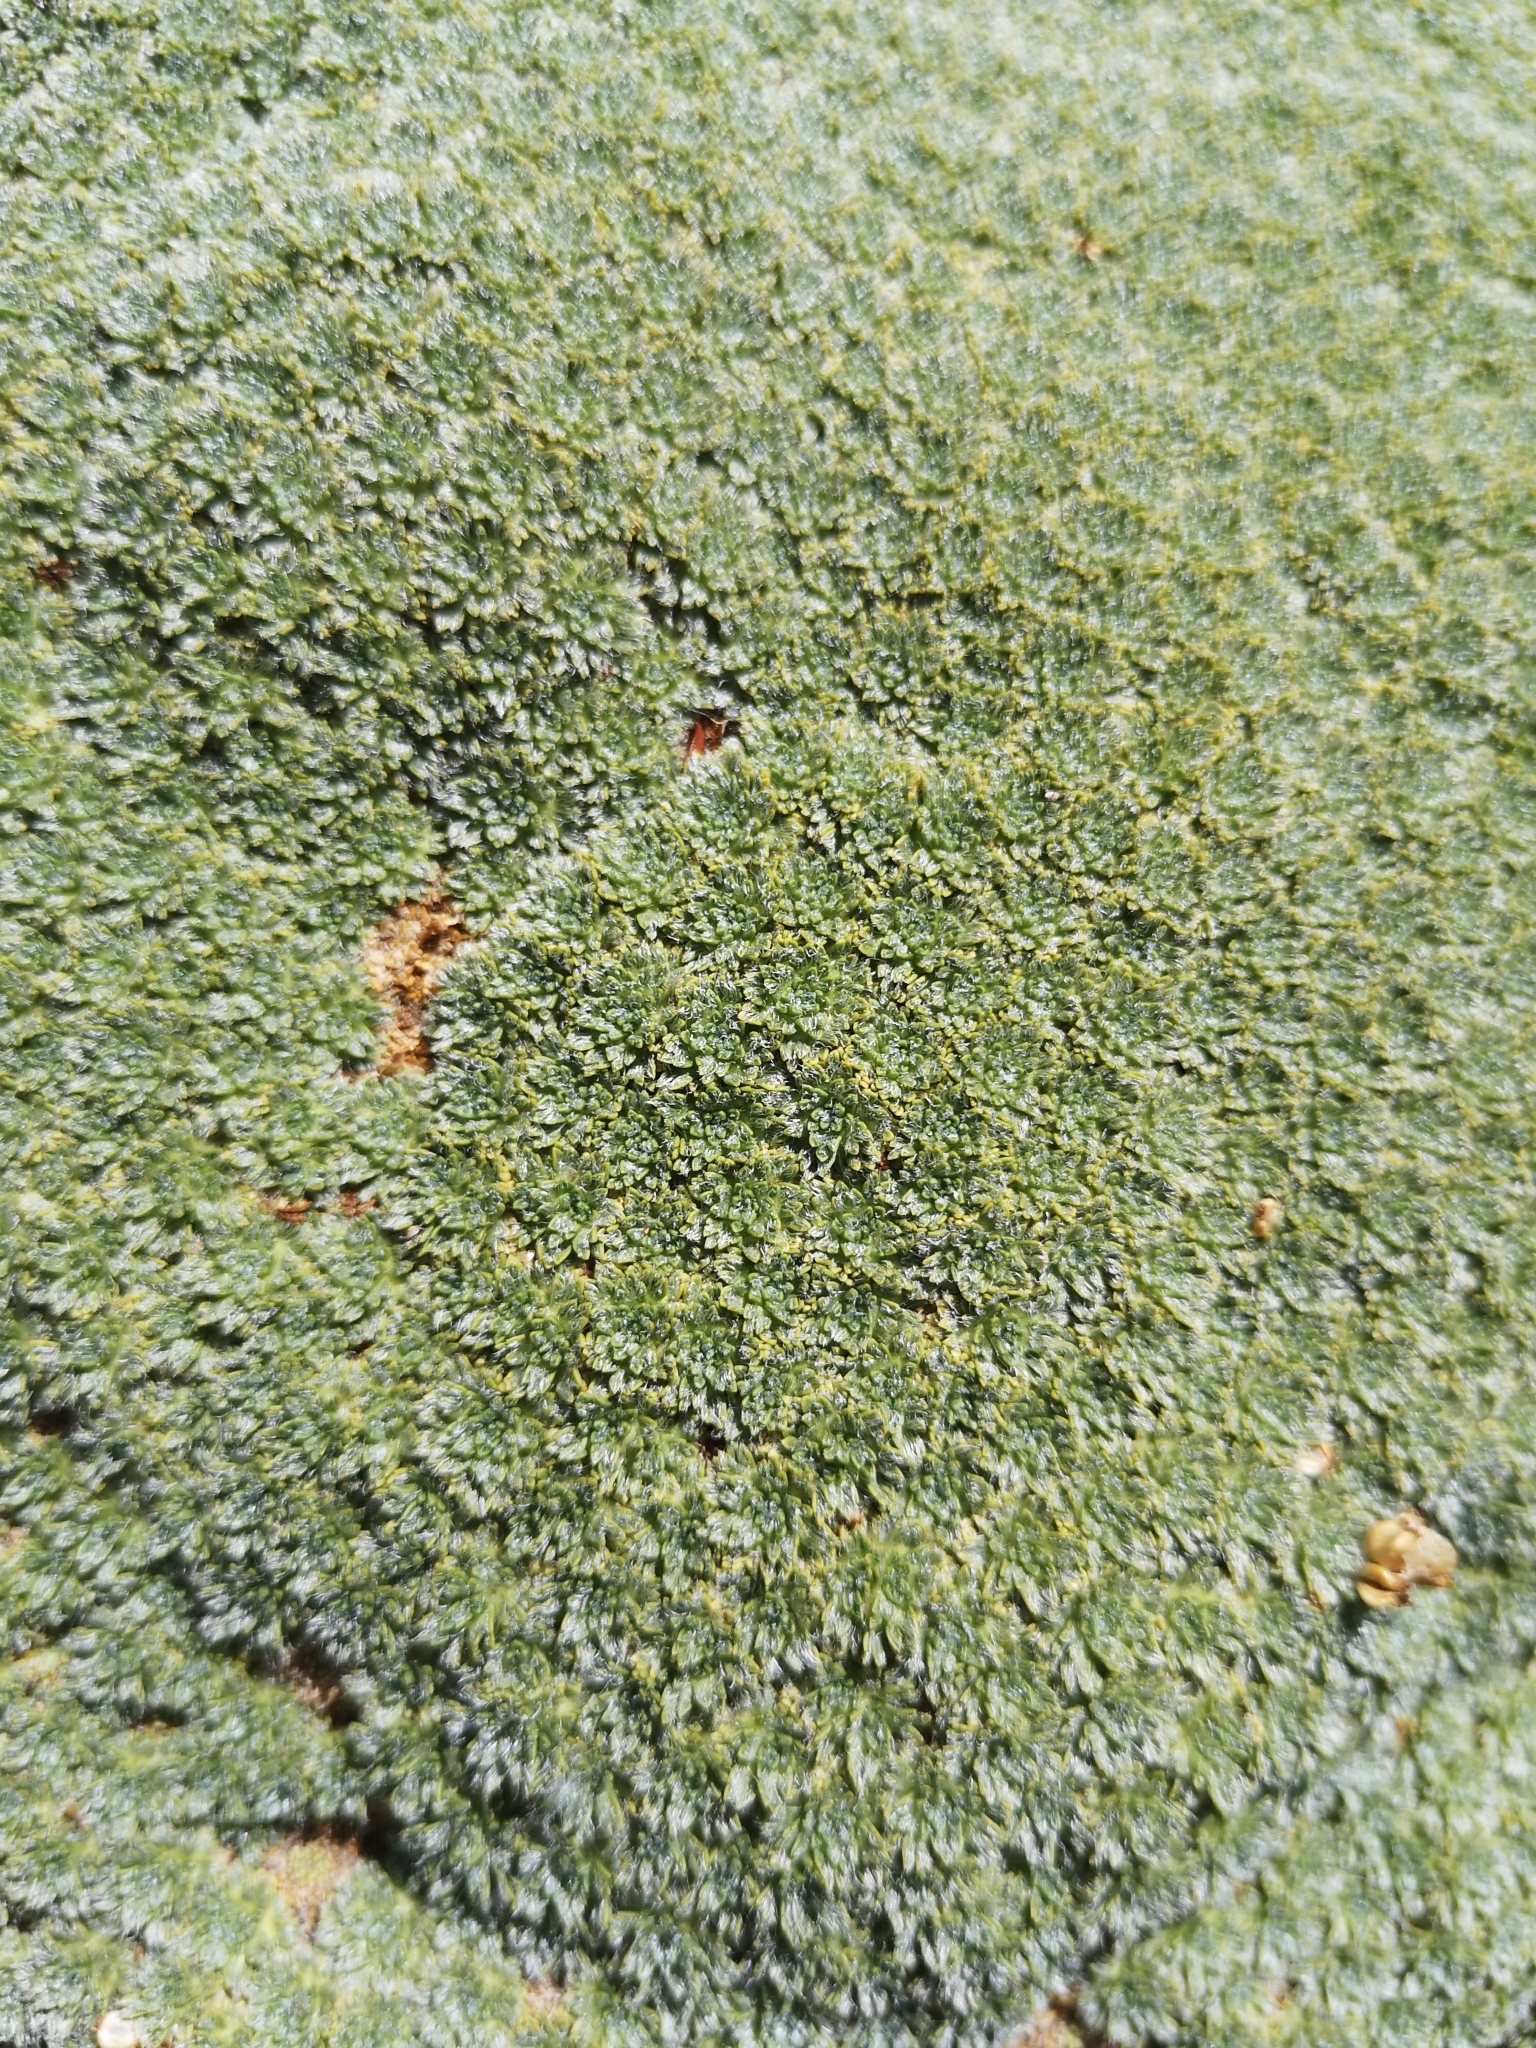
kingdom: Plantae
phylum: Tracheophyta
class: Magnoliopsida
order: Apiales
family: Apiaceae
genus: Azorella
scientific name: Azorella madreporica
